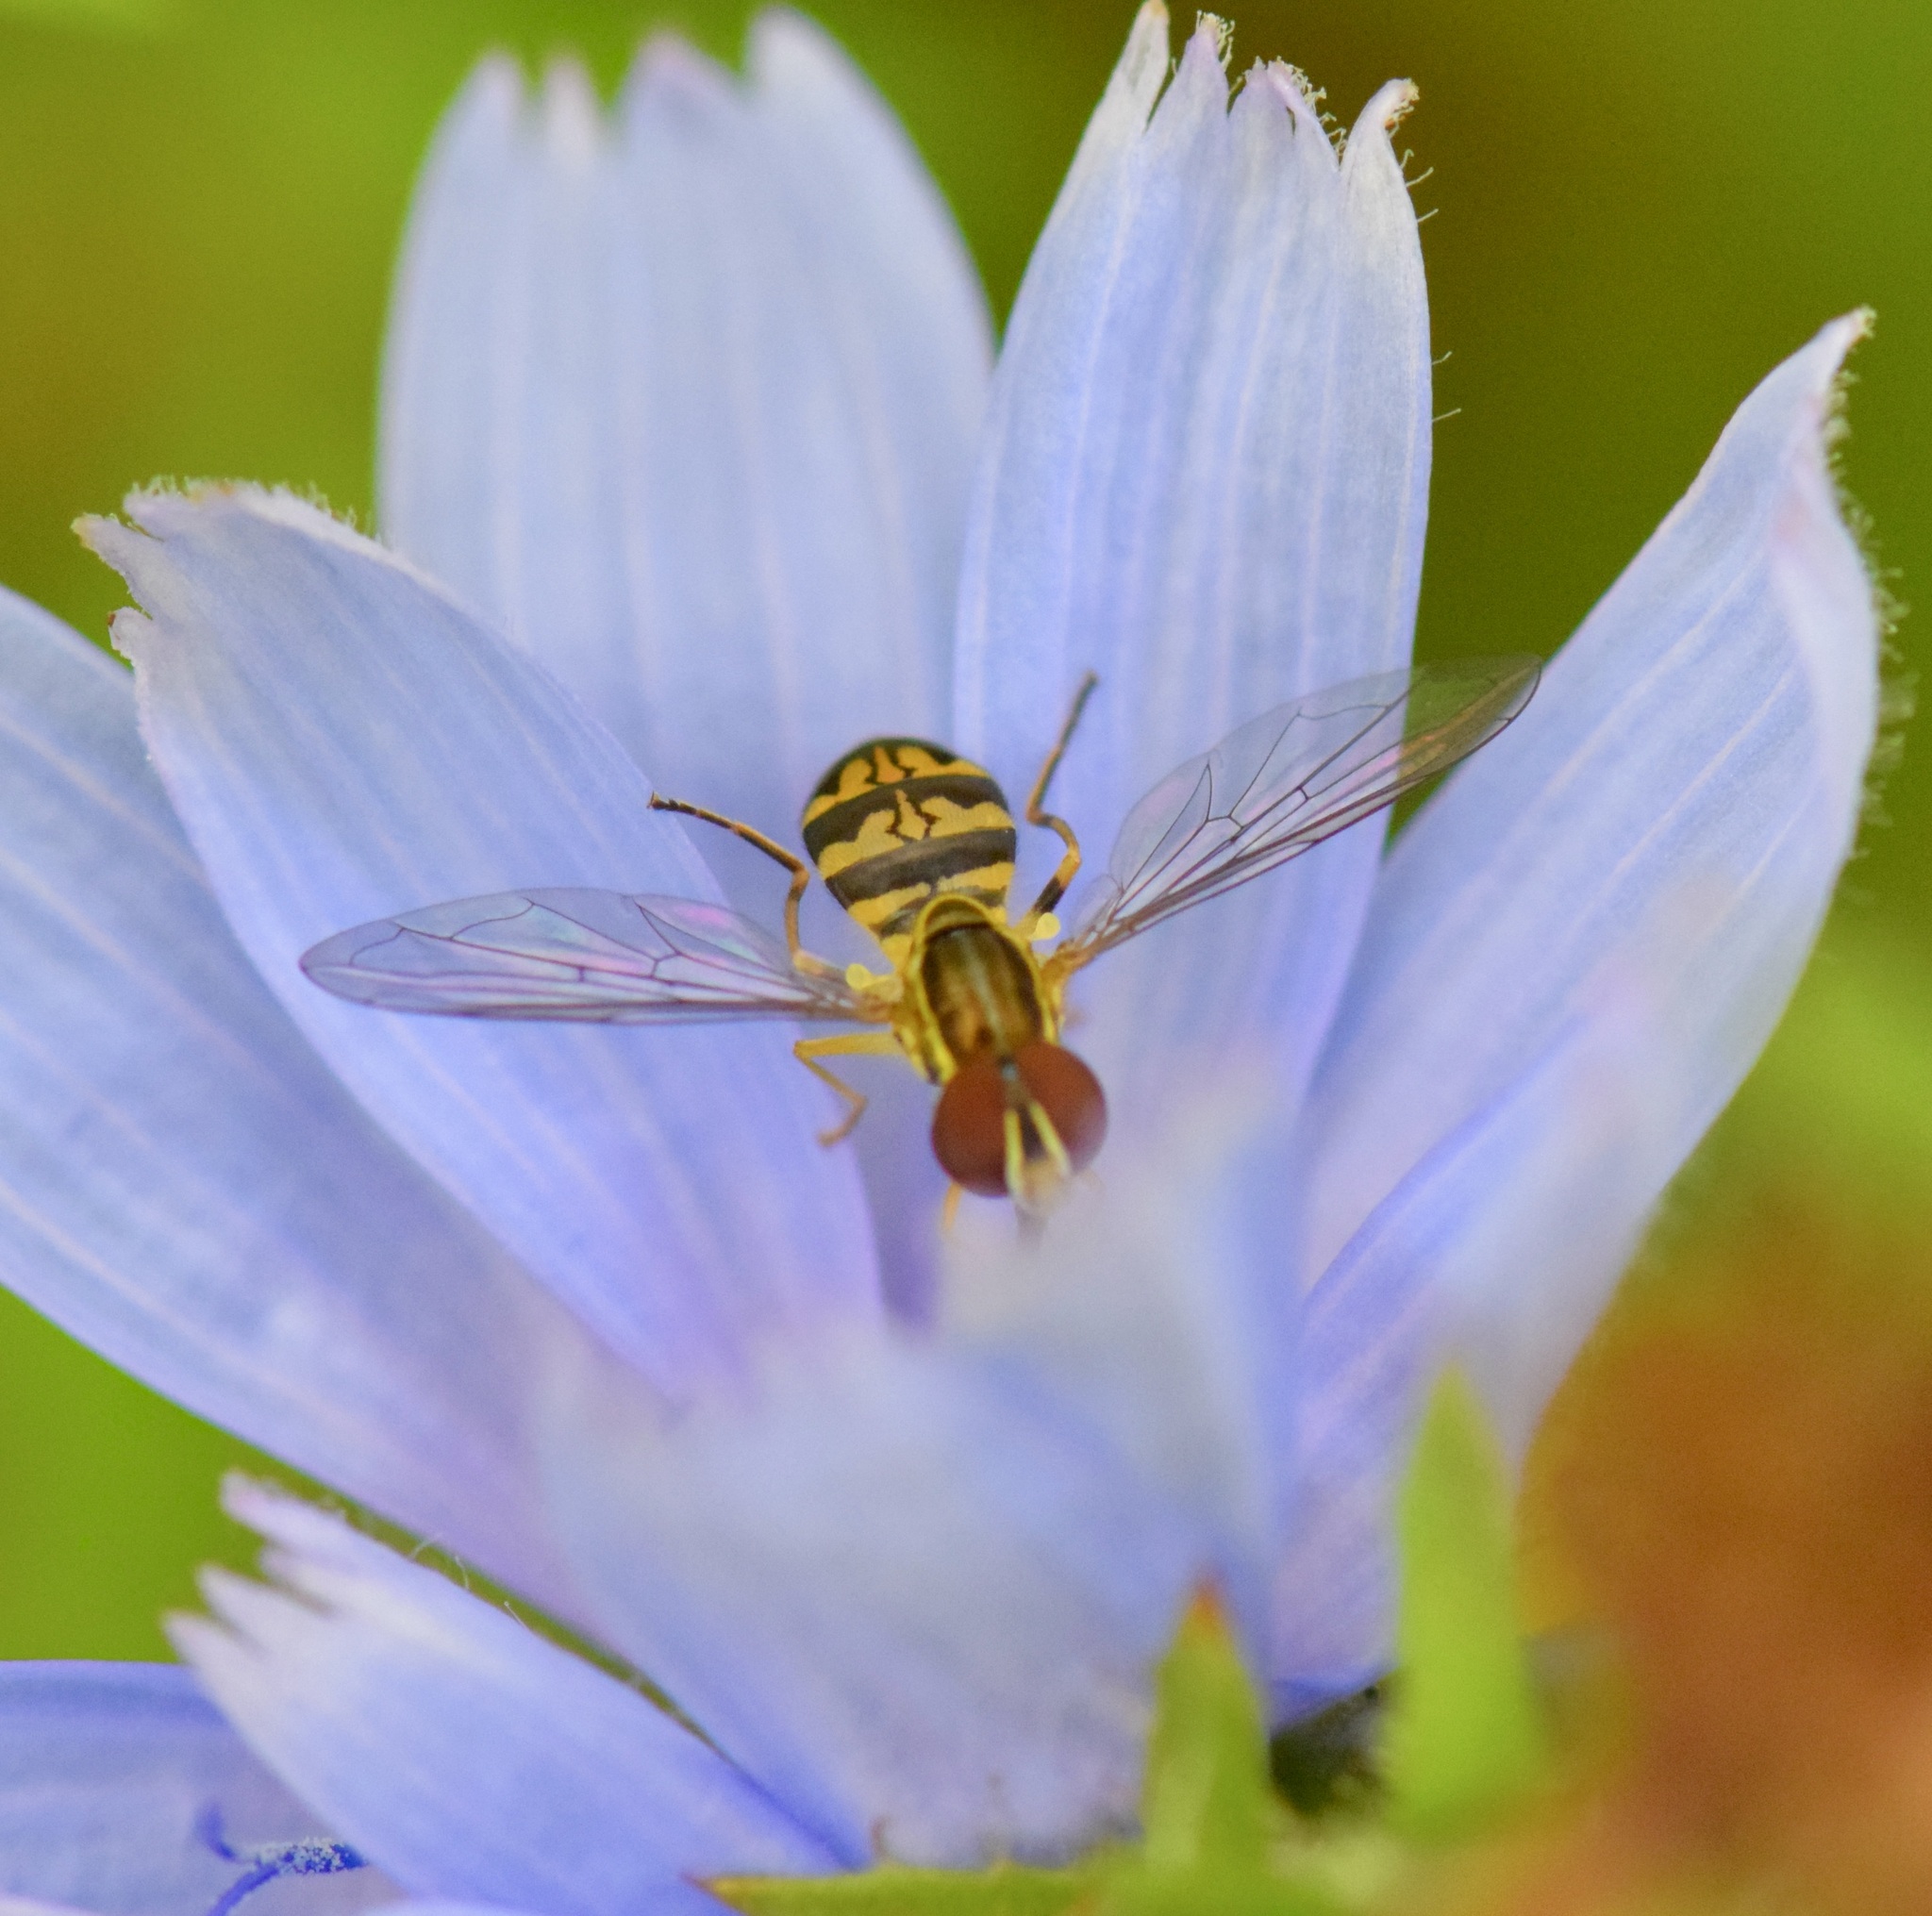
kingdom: Animalia
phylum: Arthropoda
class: Insecta
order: Diptera
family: Syrphidae
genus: Toxomerus
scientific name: Toxomerus geminatus
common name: Eastern calligrapher
